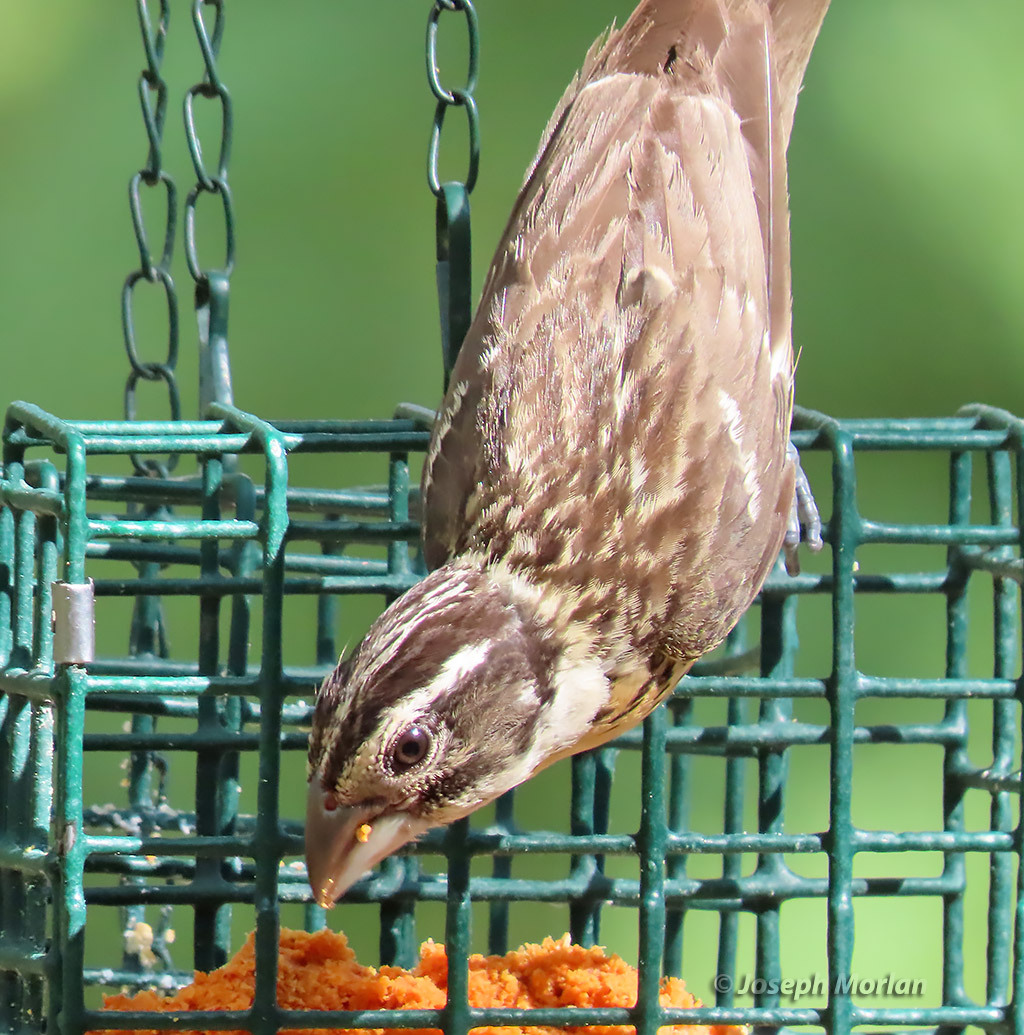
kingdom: Animalia
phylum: Chordata
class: Aves
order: Passeriformes
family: Cardinalidae
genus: Pheucticus
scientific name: Pheucticus melanocephalus
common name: Black-headed grosbeak
